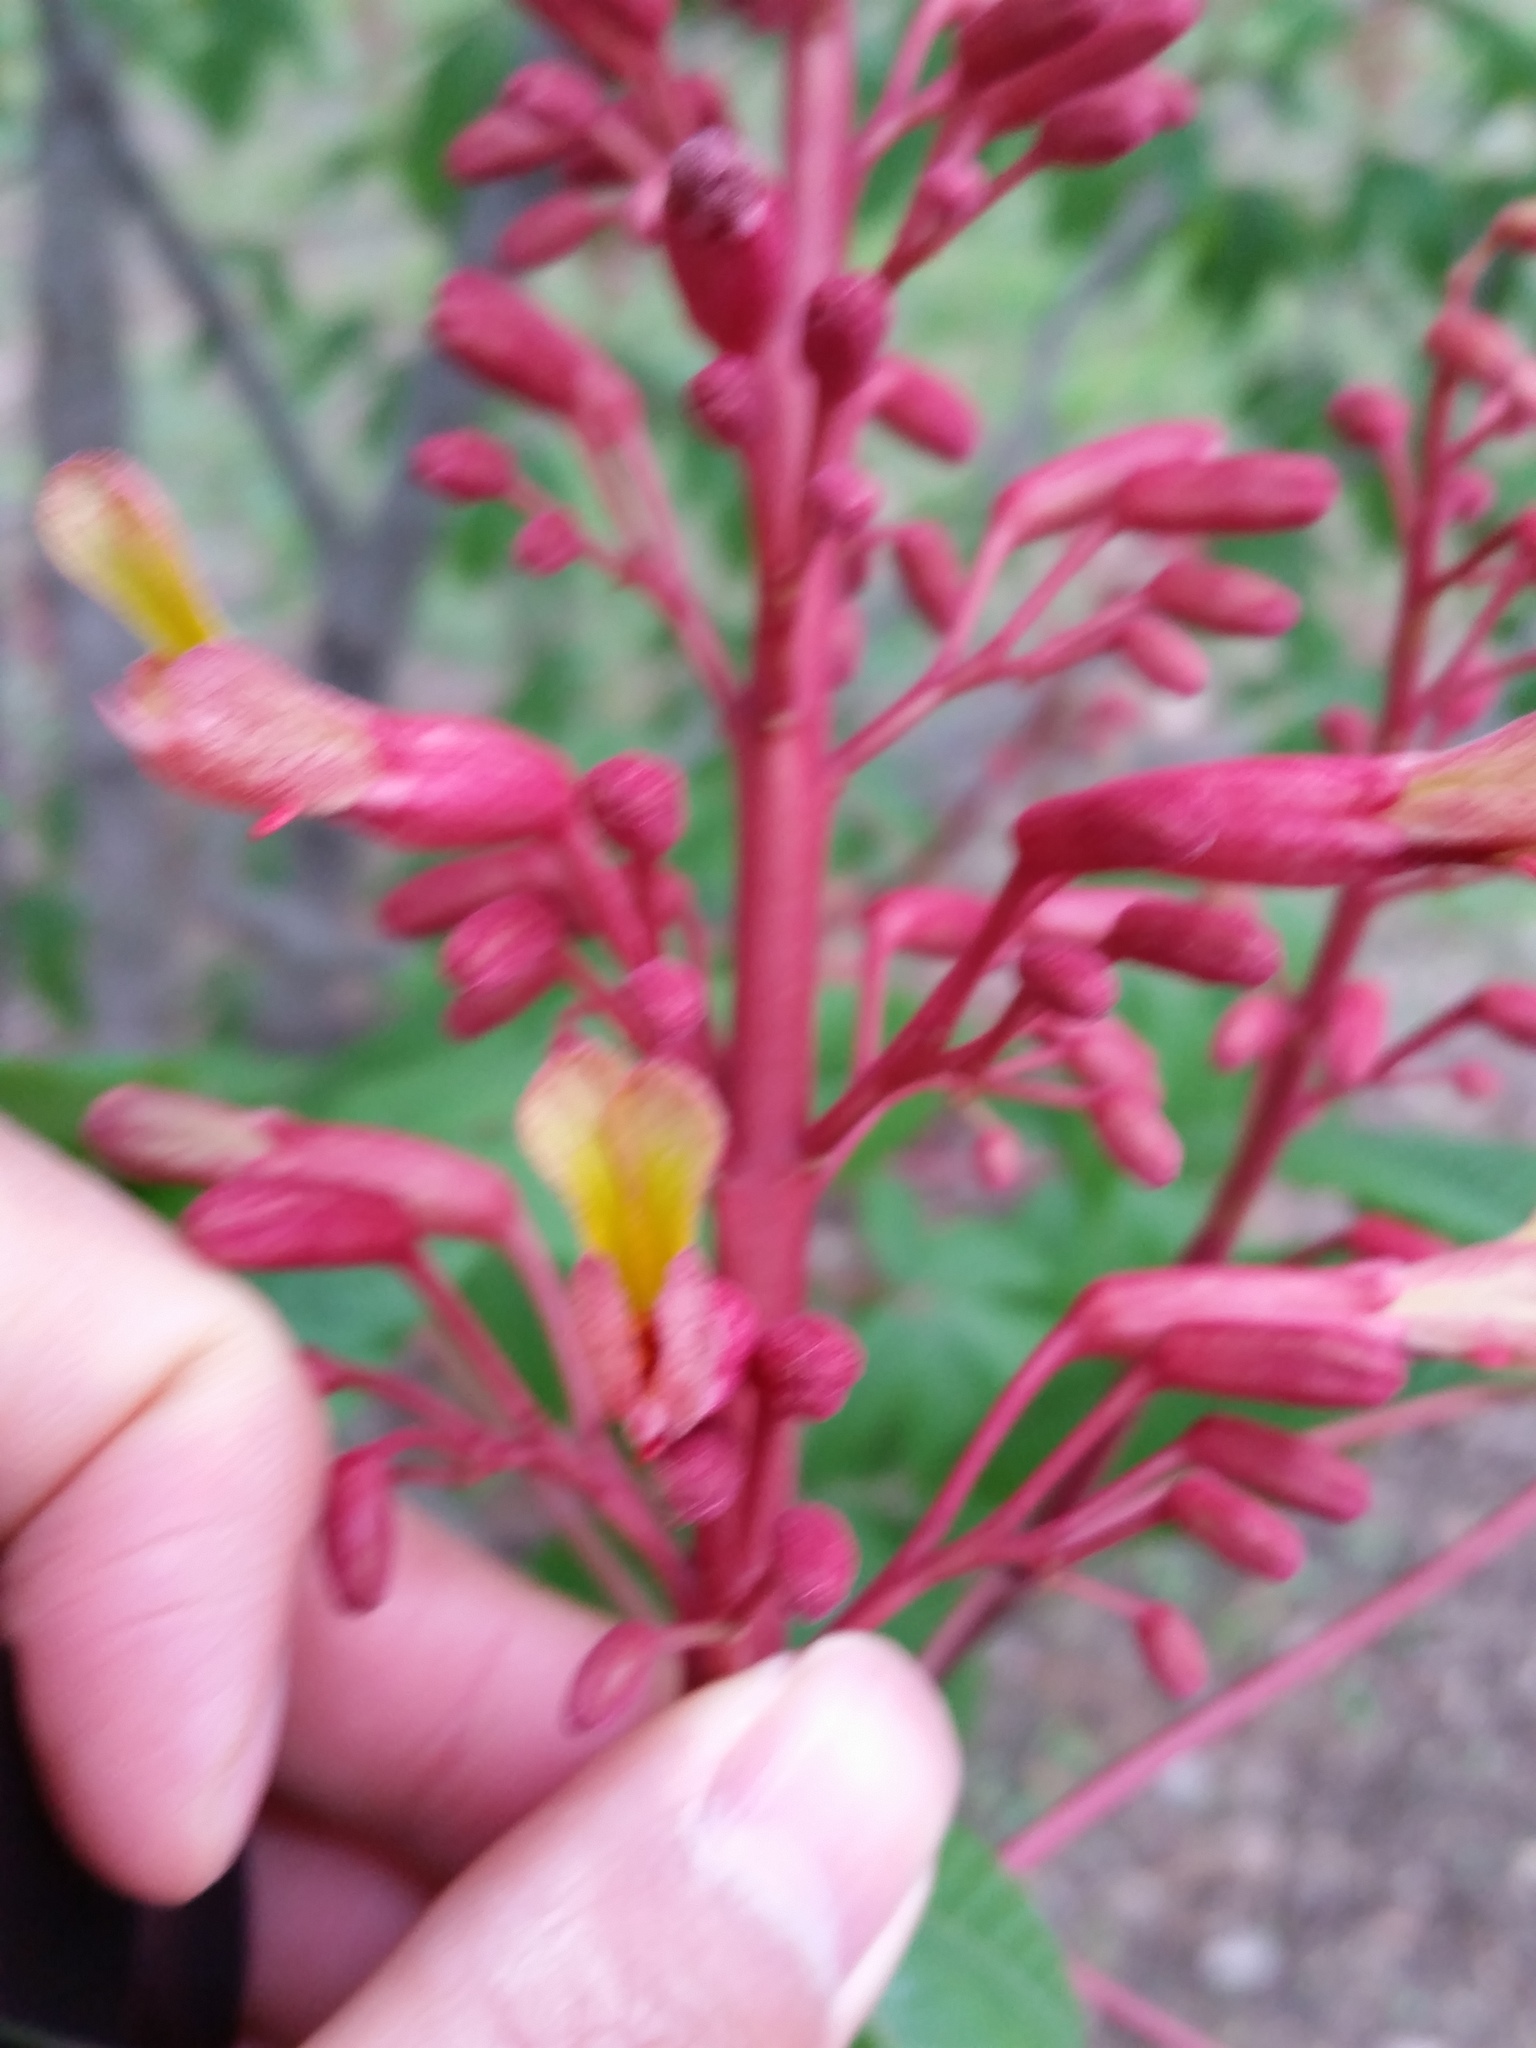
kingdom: Plantae
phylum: Tracheophyta
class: Magnoliopsida
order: Sapindales
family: Sapindaceae
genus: Aesculus
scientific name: Aesculus pavia
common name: Red buckeye
